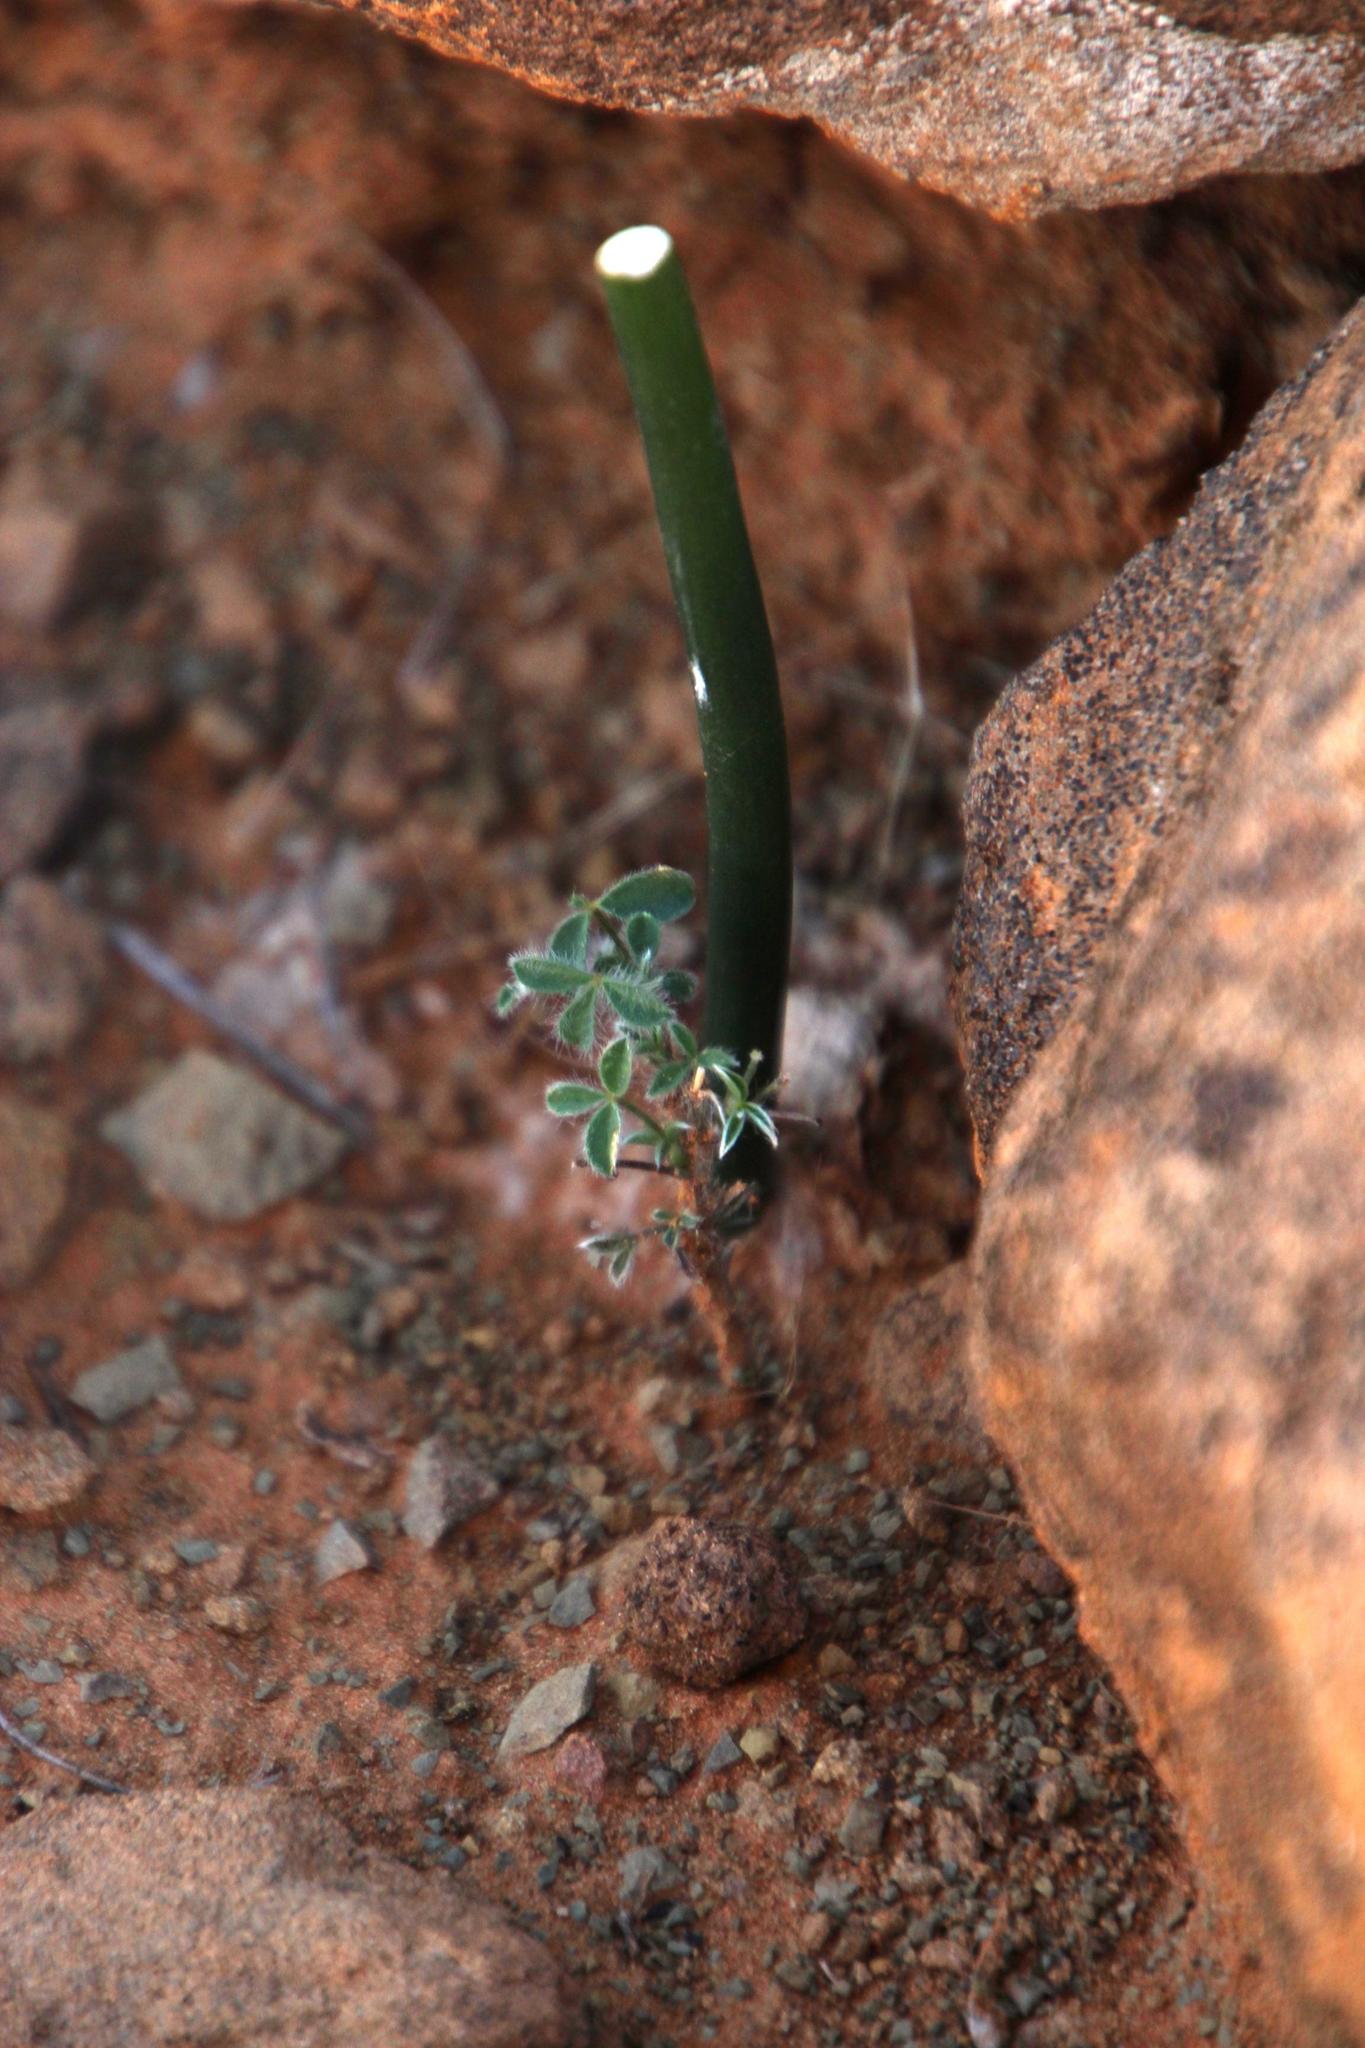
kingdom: Plantae
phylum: Tracheophyta
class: Liliopsida
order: Asparagales
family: Asparagaceae
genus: Drimia
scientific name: Drimia anomala
